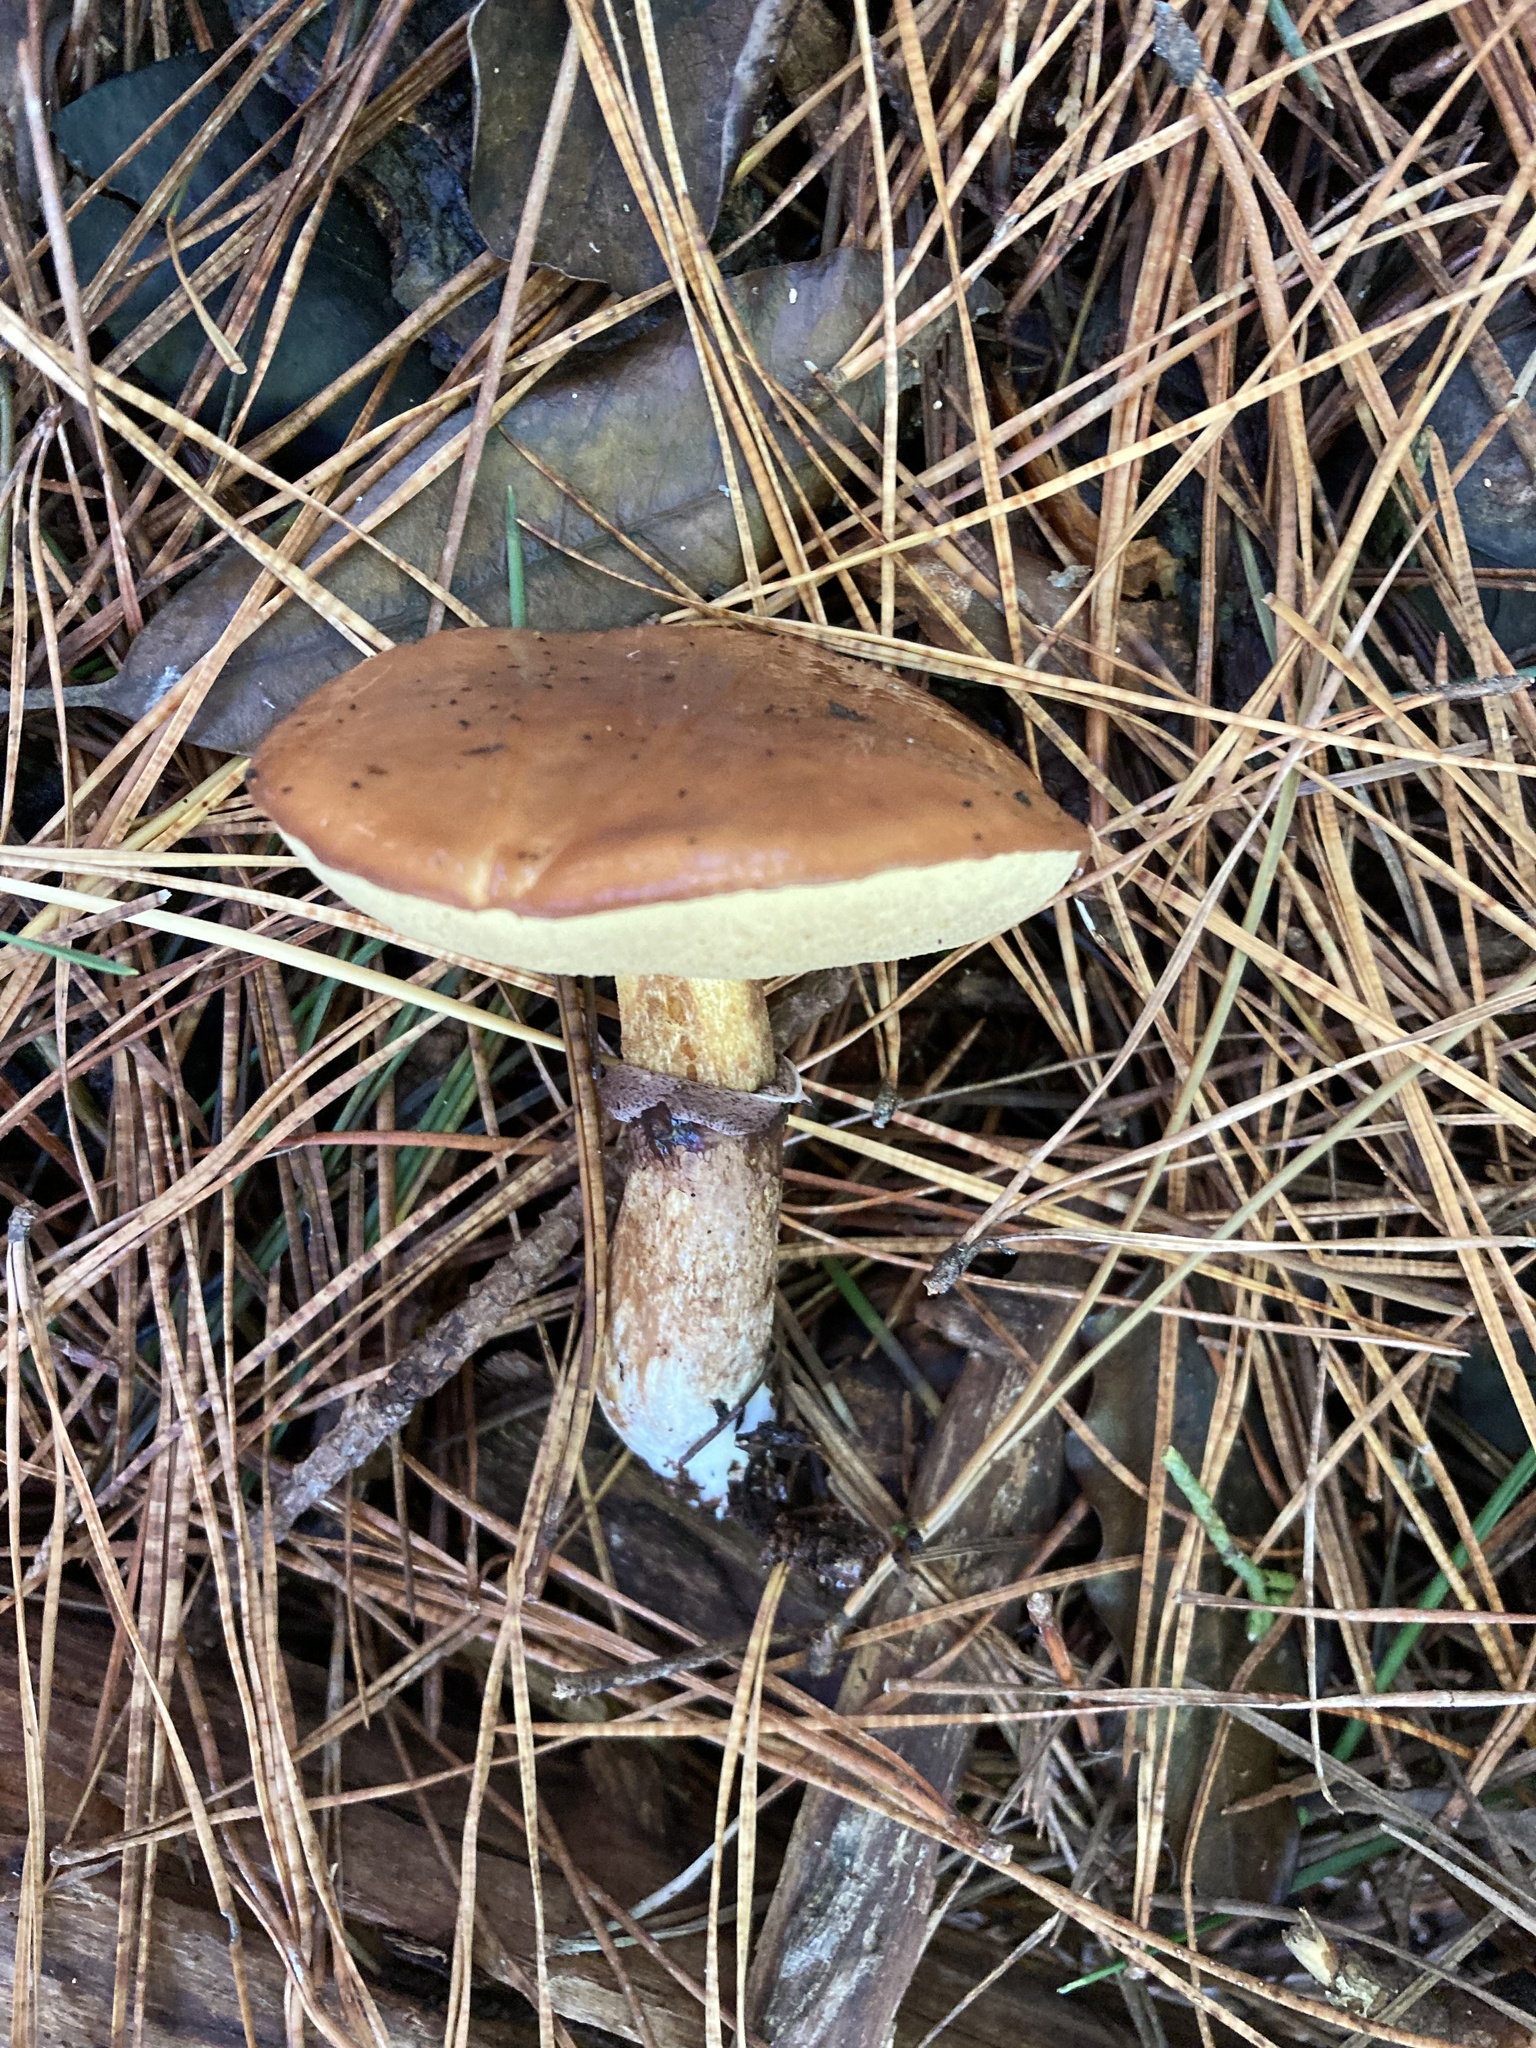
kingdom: Fungi
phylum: Basidiomycota
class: Agaricomycetes
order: Boletales
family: Suillaceae
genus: Suillus
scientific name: Suillus luteus
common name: Slippery jack
